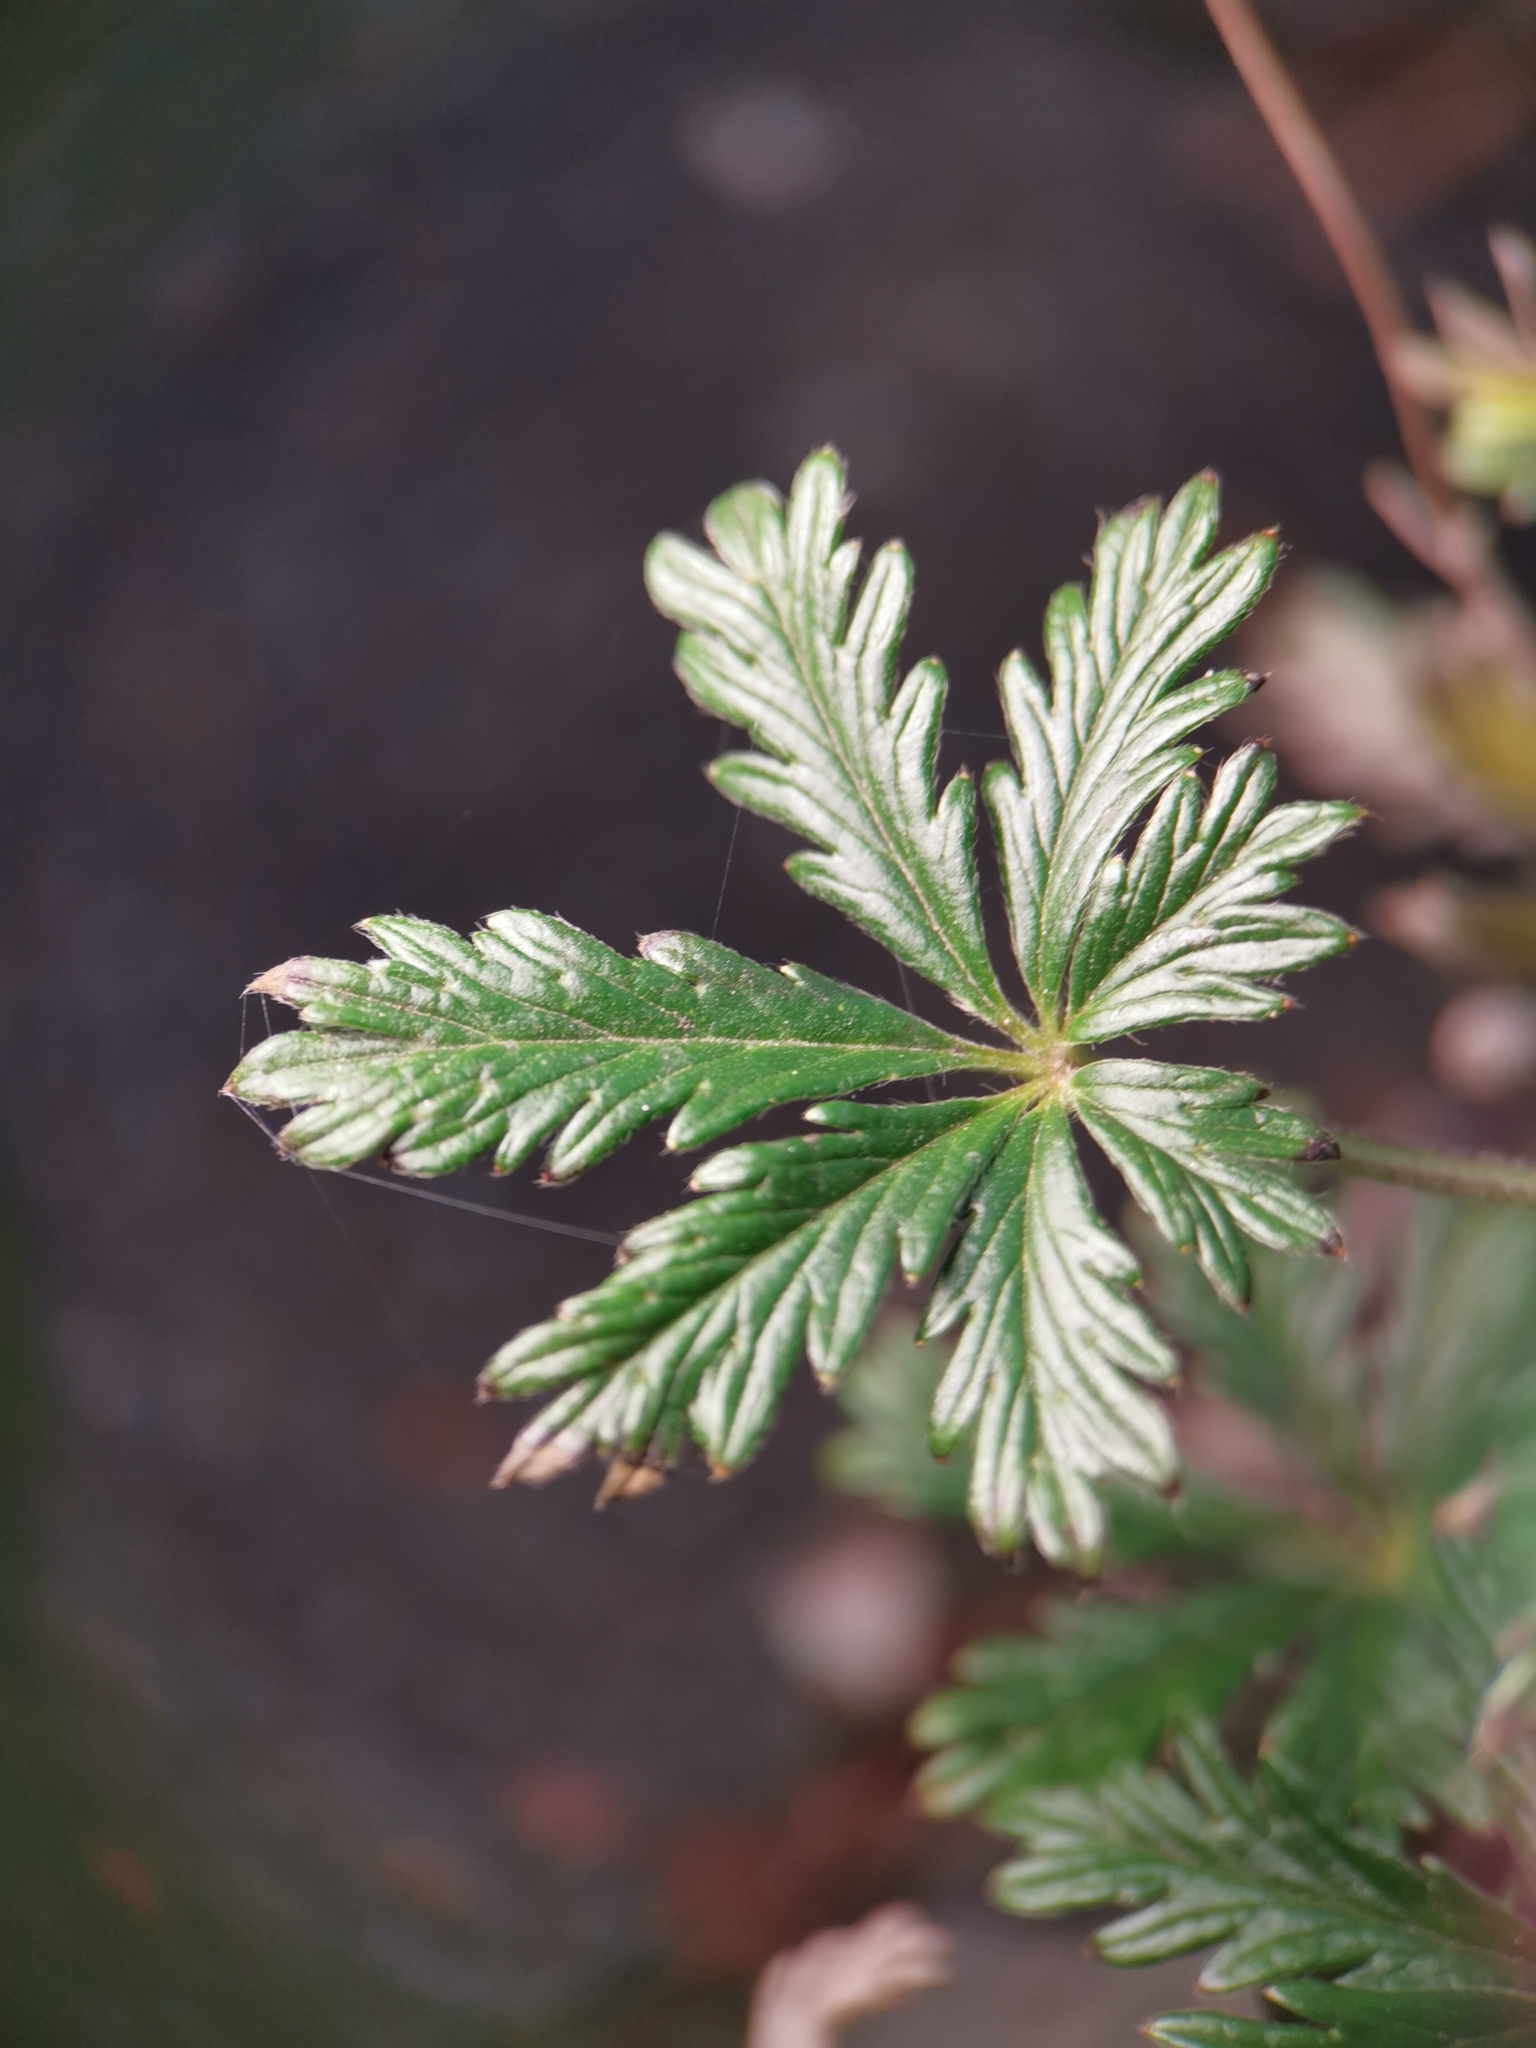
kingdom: Plantae
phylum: Tracheophyta
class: Magnoliopsida
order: Rosales
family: Rosaceae
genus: Potentilla
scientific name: Potentilla argentea
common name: Hoary cinquefoil
